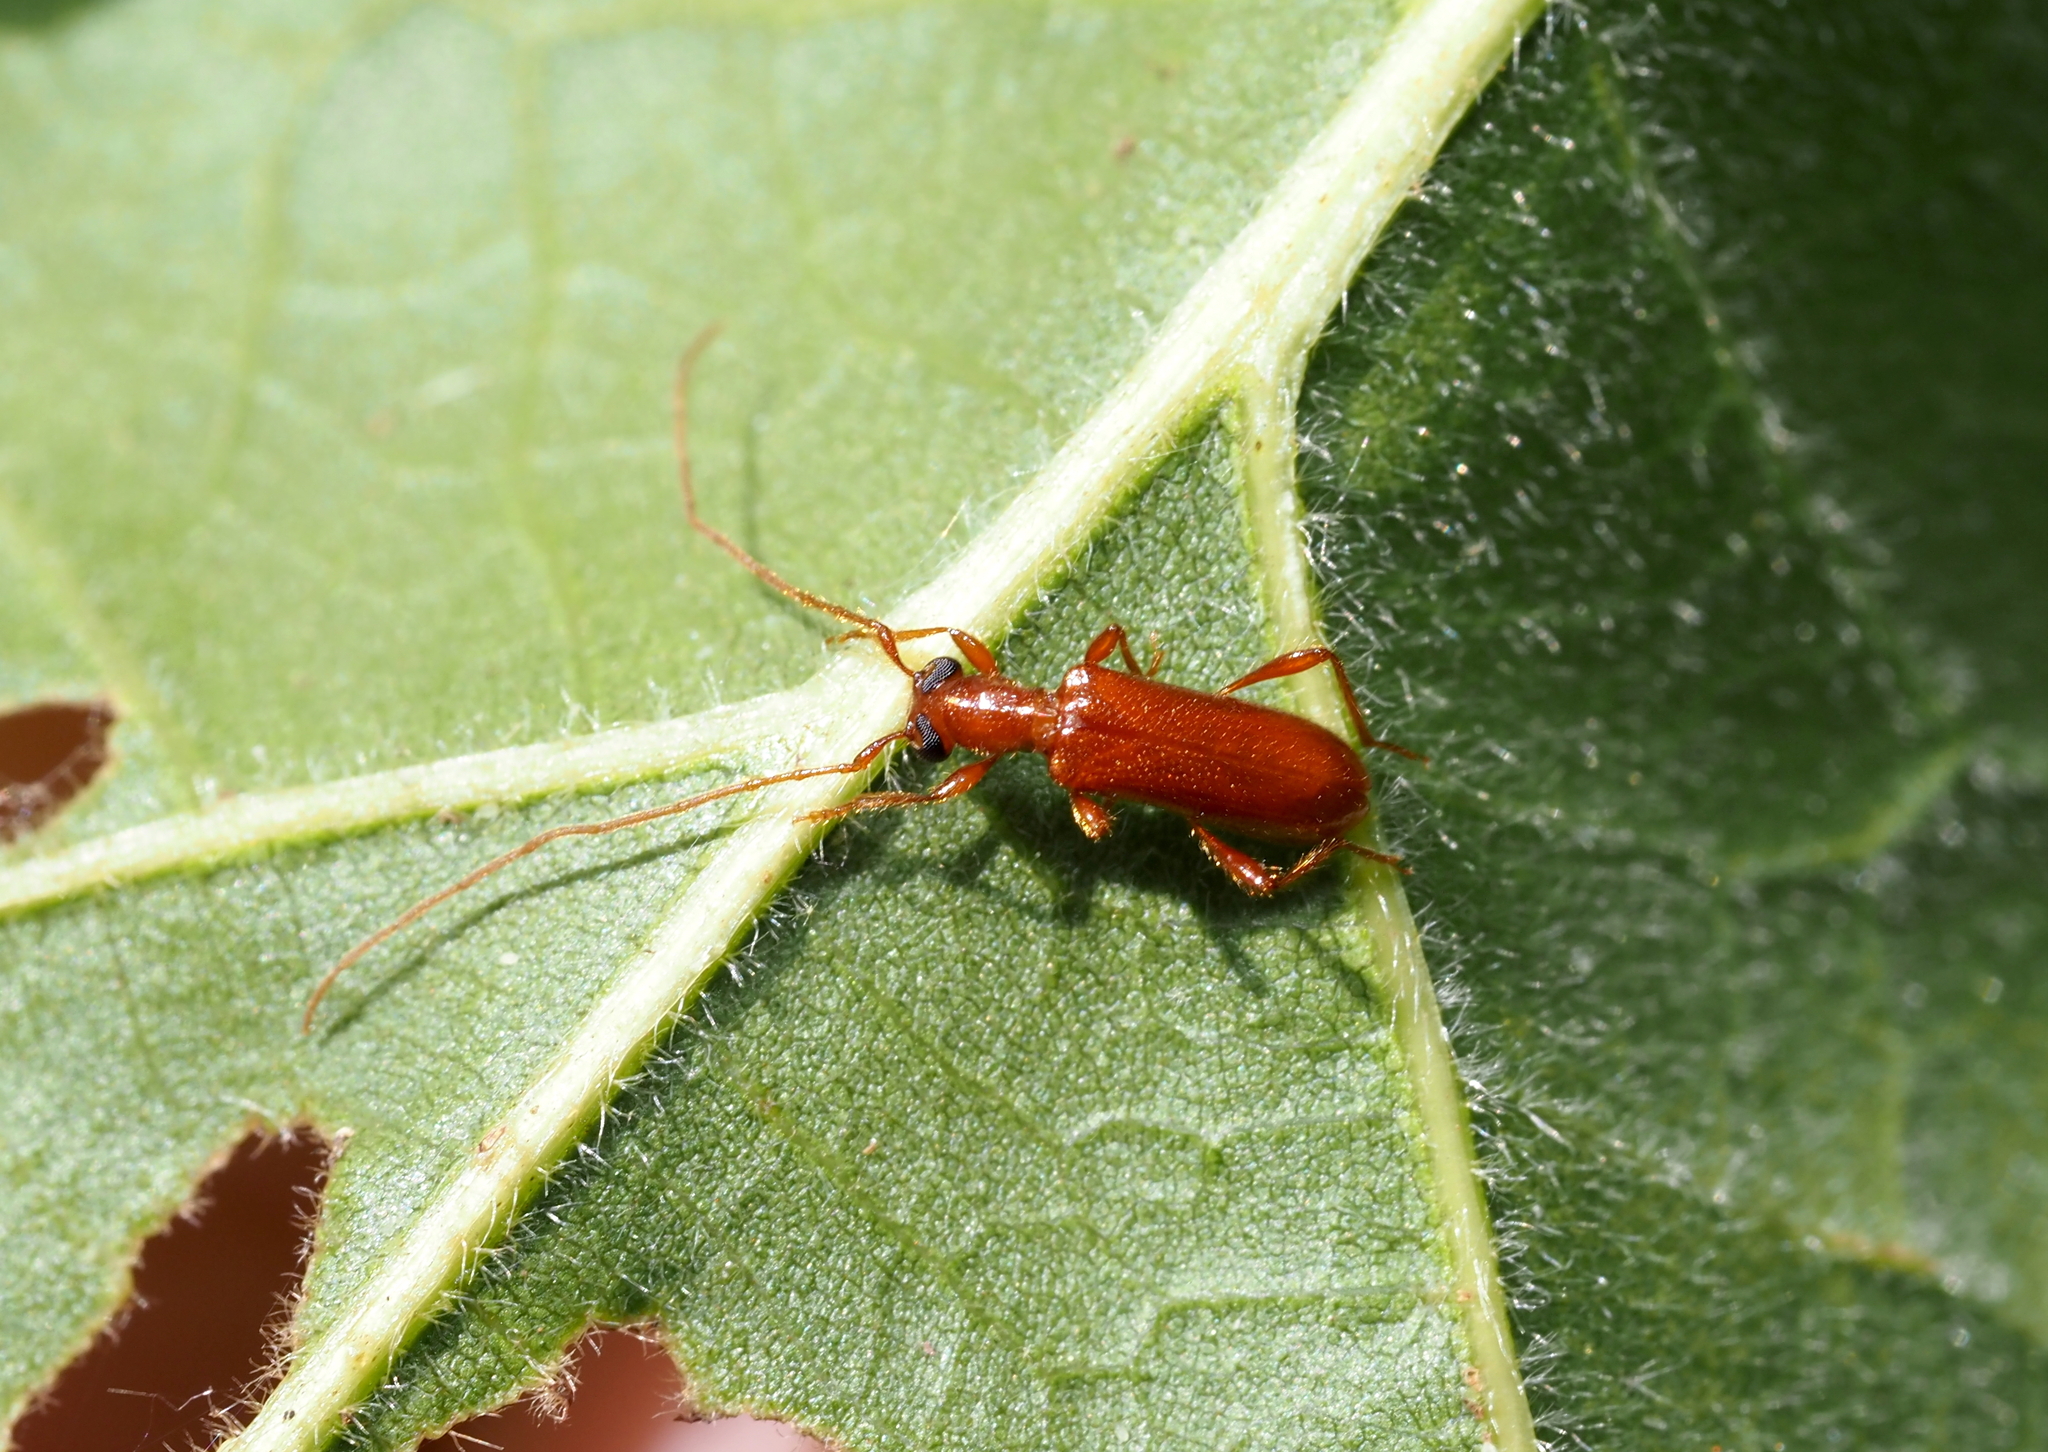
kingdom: Animalia
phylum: Arthropoda
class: Insecta
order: Coleoptera
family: Cerambycidae
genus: Obrium
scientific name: Obrium rufulum
